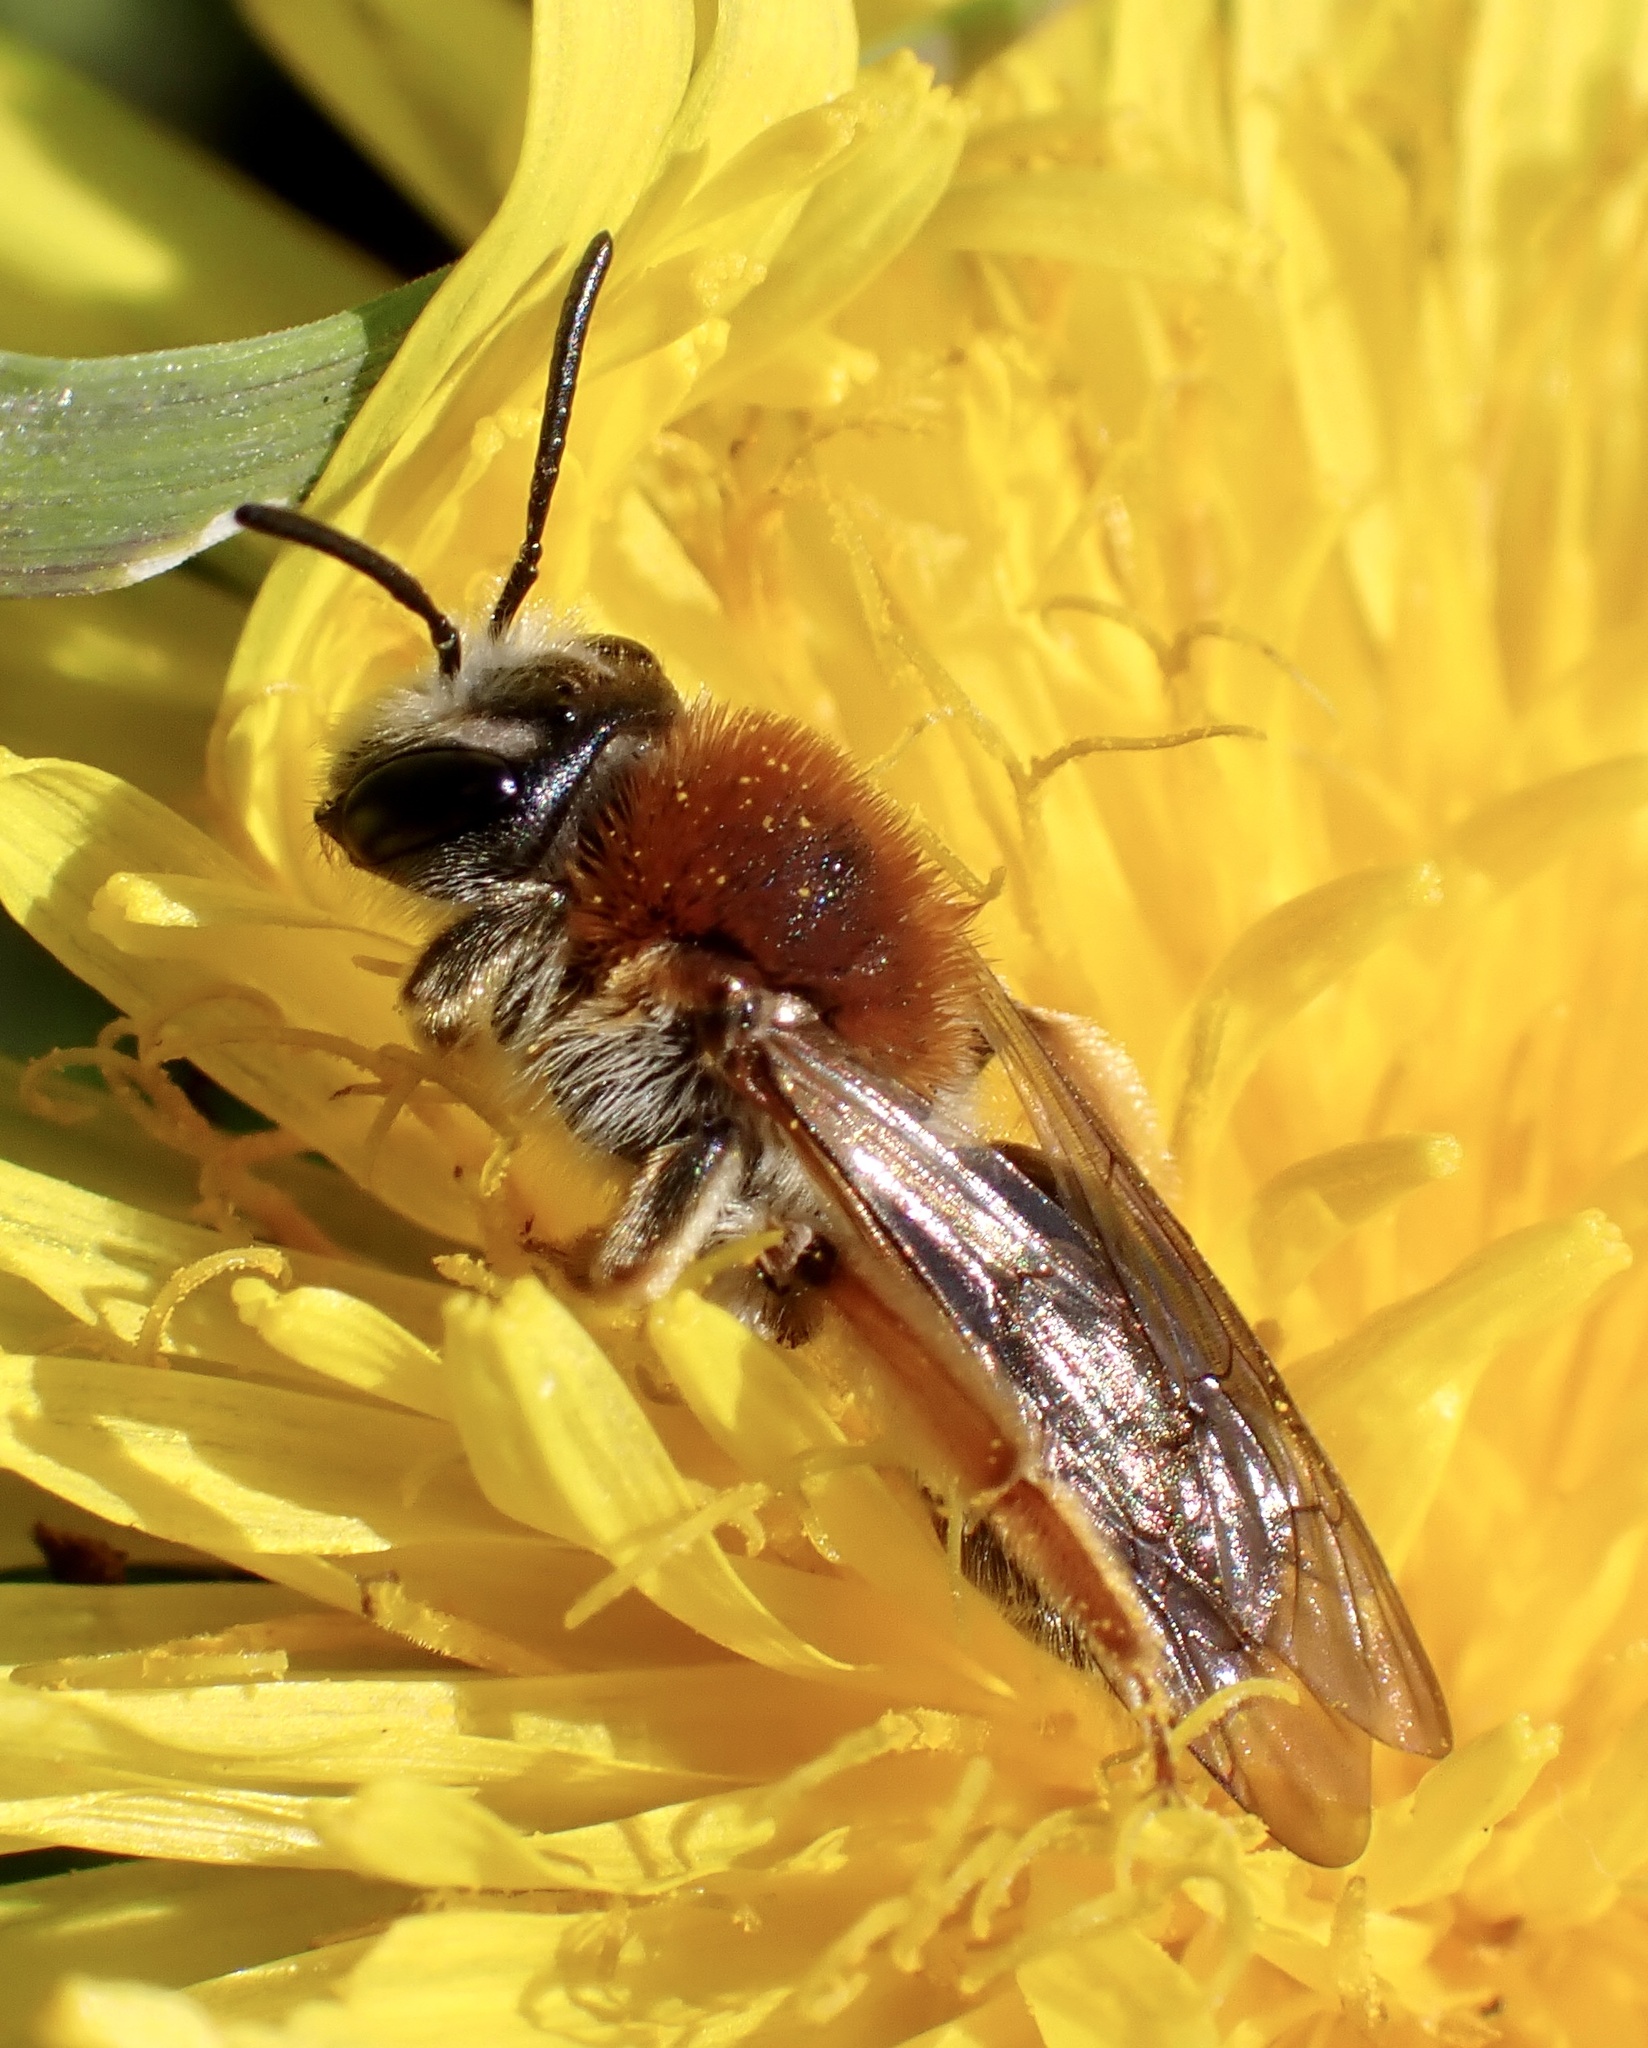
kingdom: Animalia
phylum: Arthropoda
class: Insecta
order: Hymenoptera
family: Andrenidae
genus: Andrena
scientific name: Andrena haemorrhoa
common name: Early mining bee
